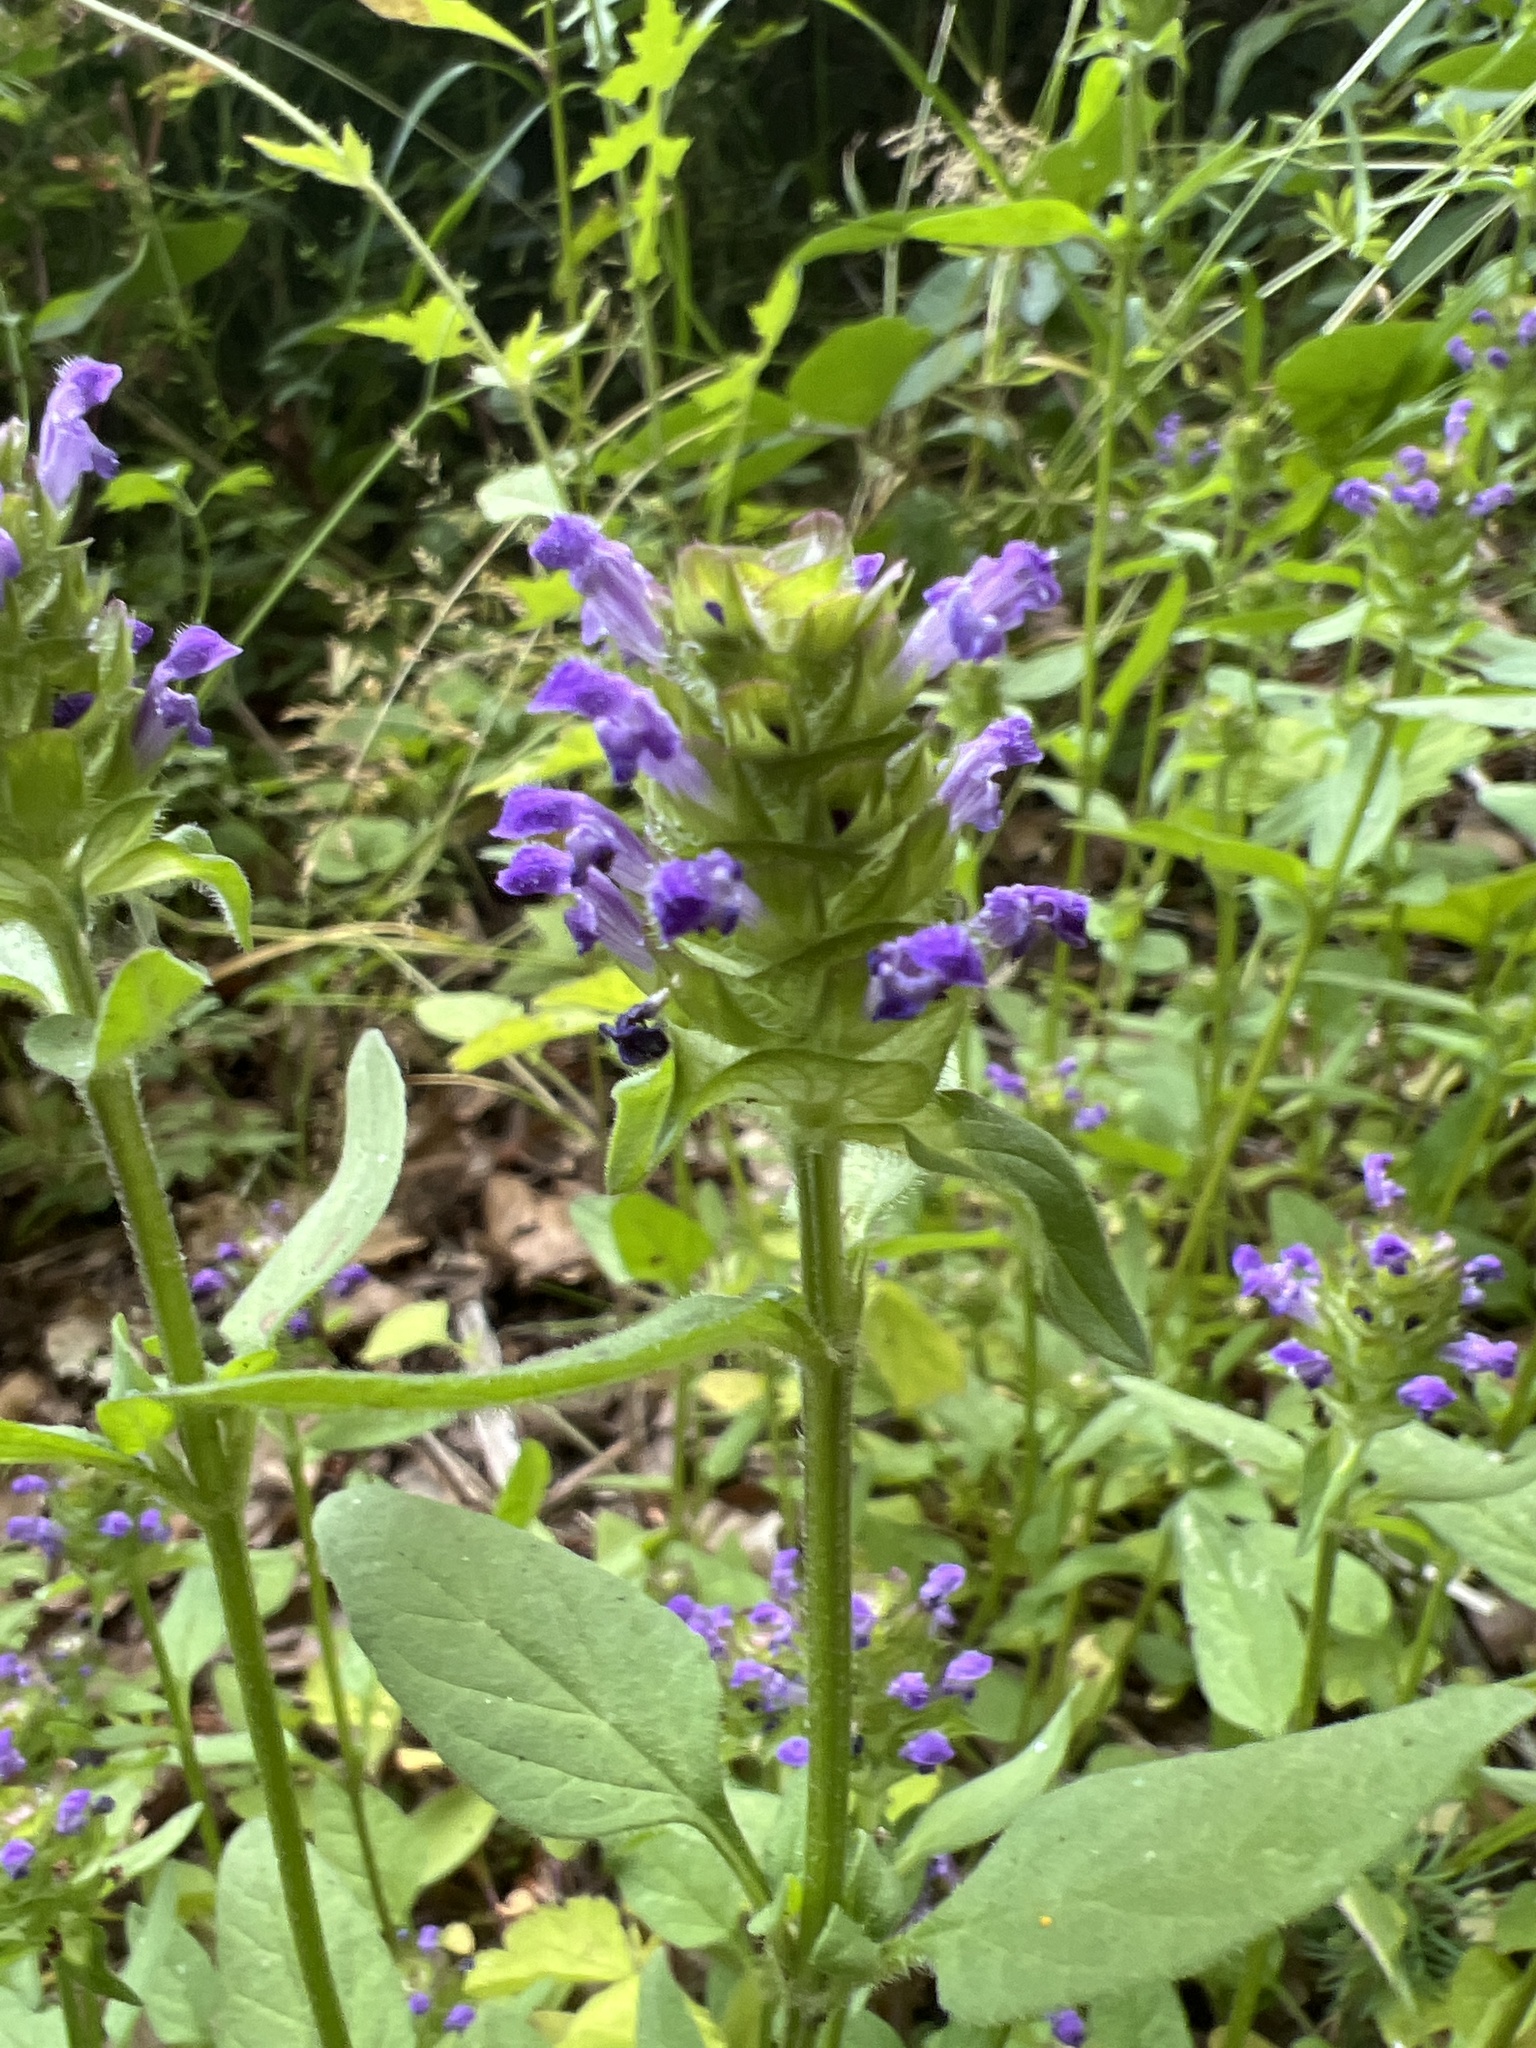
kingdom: Plantae
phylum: Tracheophyta
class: Magnoliopsida
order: Lamiales
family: Lamiaceae
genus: Prunella
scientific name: Prunella vulgaris
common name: Heal-all
